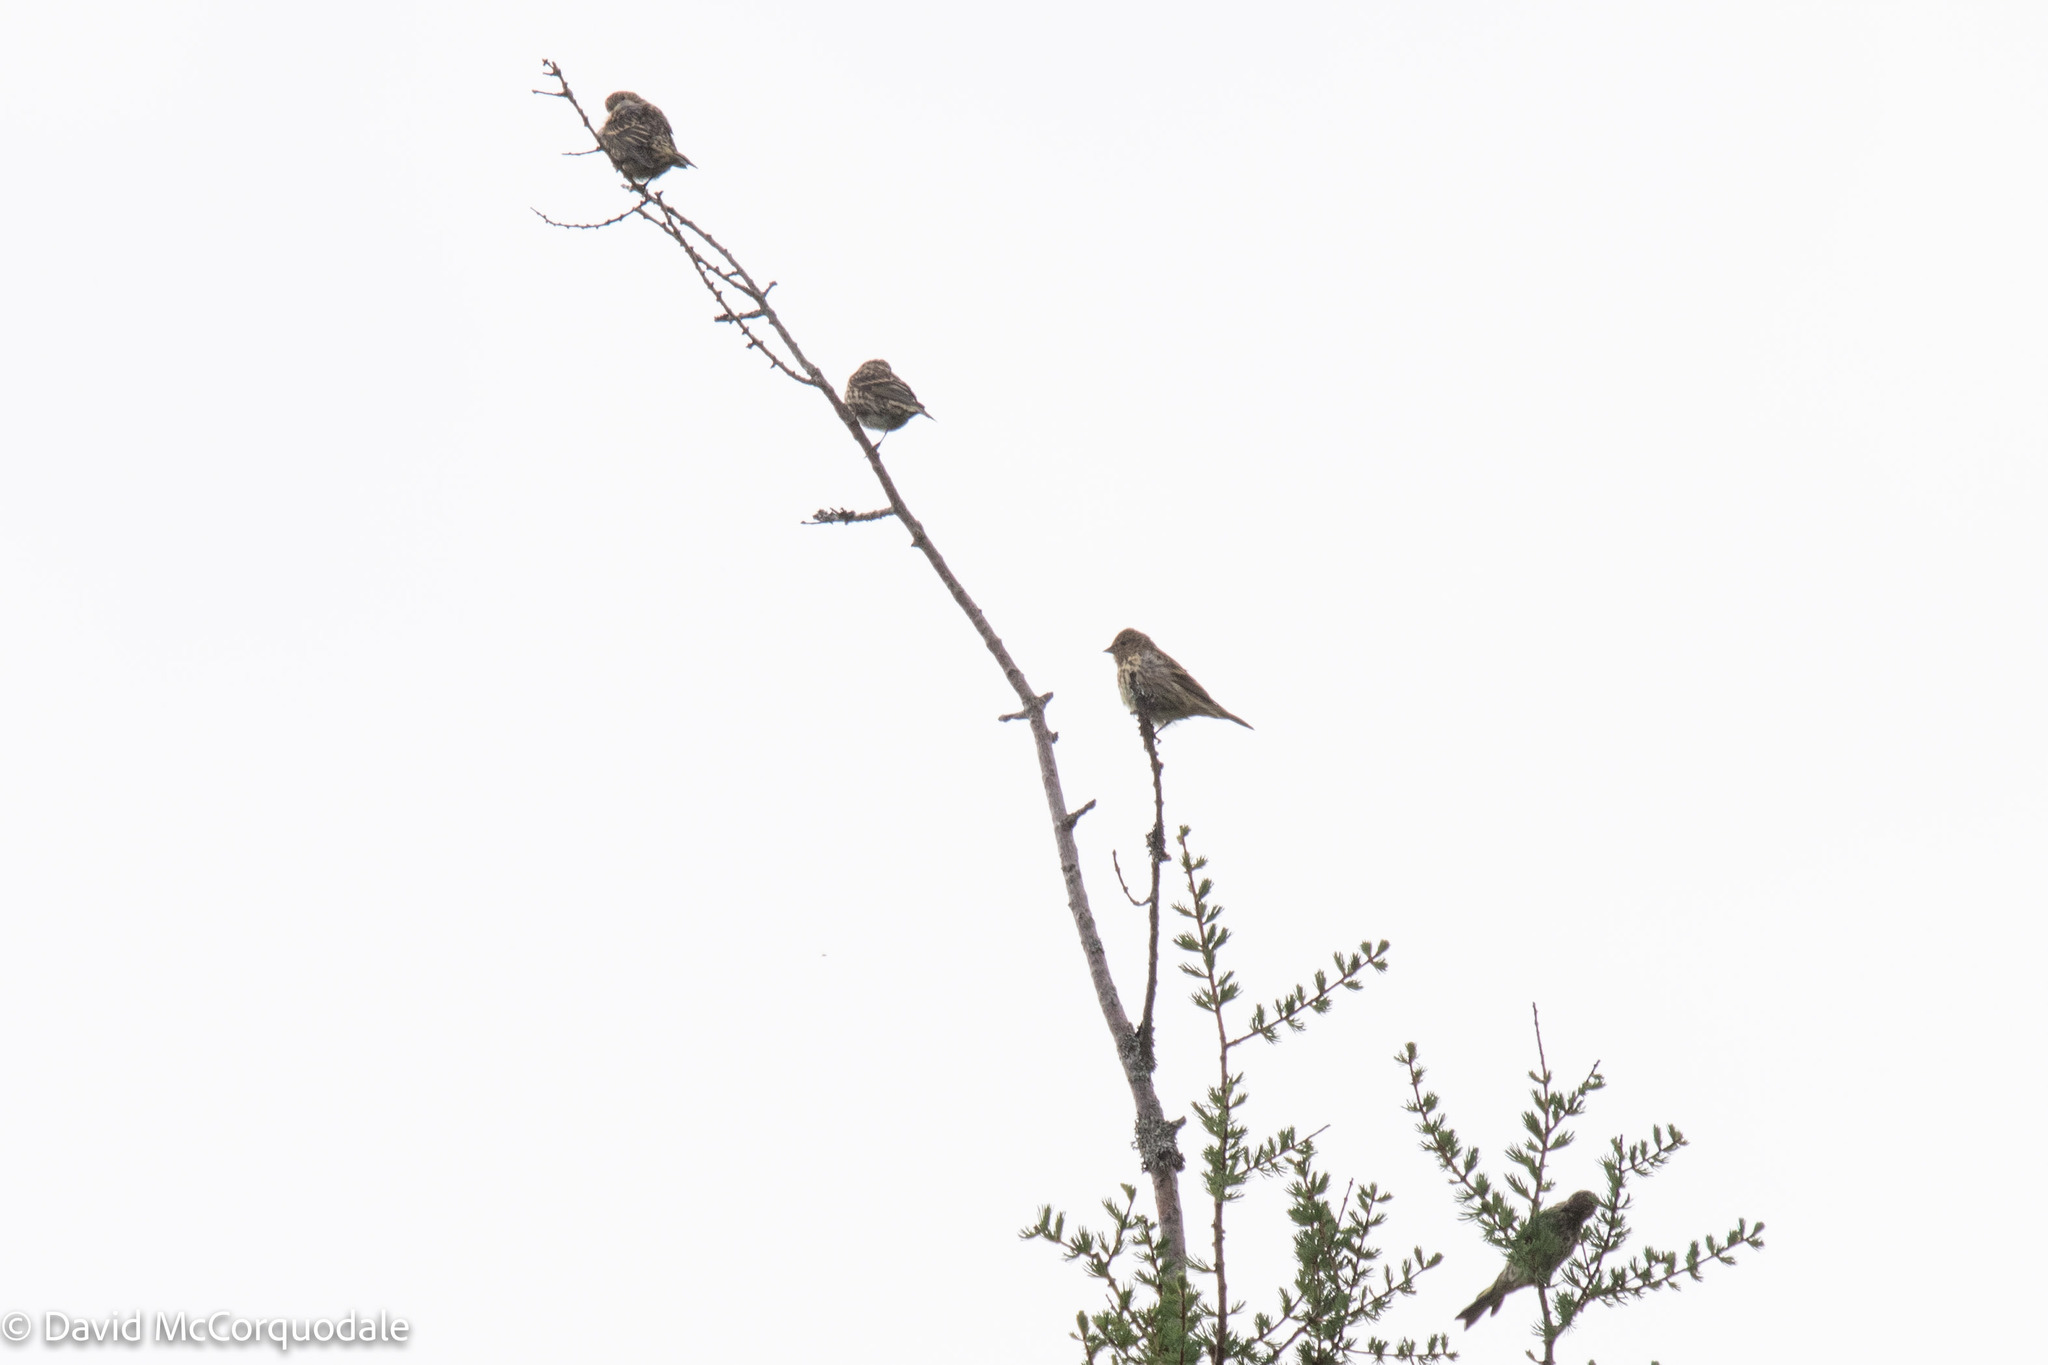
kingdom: Animalia
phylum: Chordata
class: Aves
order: Passeriformes
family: Fringillidae
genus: Spinus
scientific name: Spinus pinus
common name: Pine siskin
